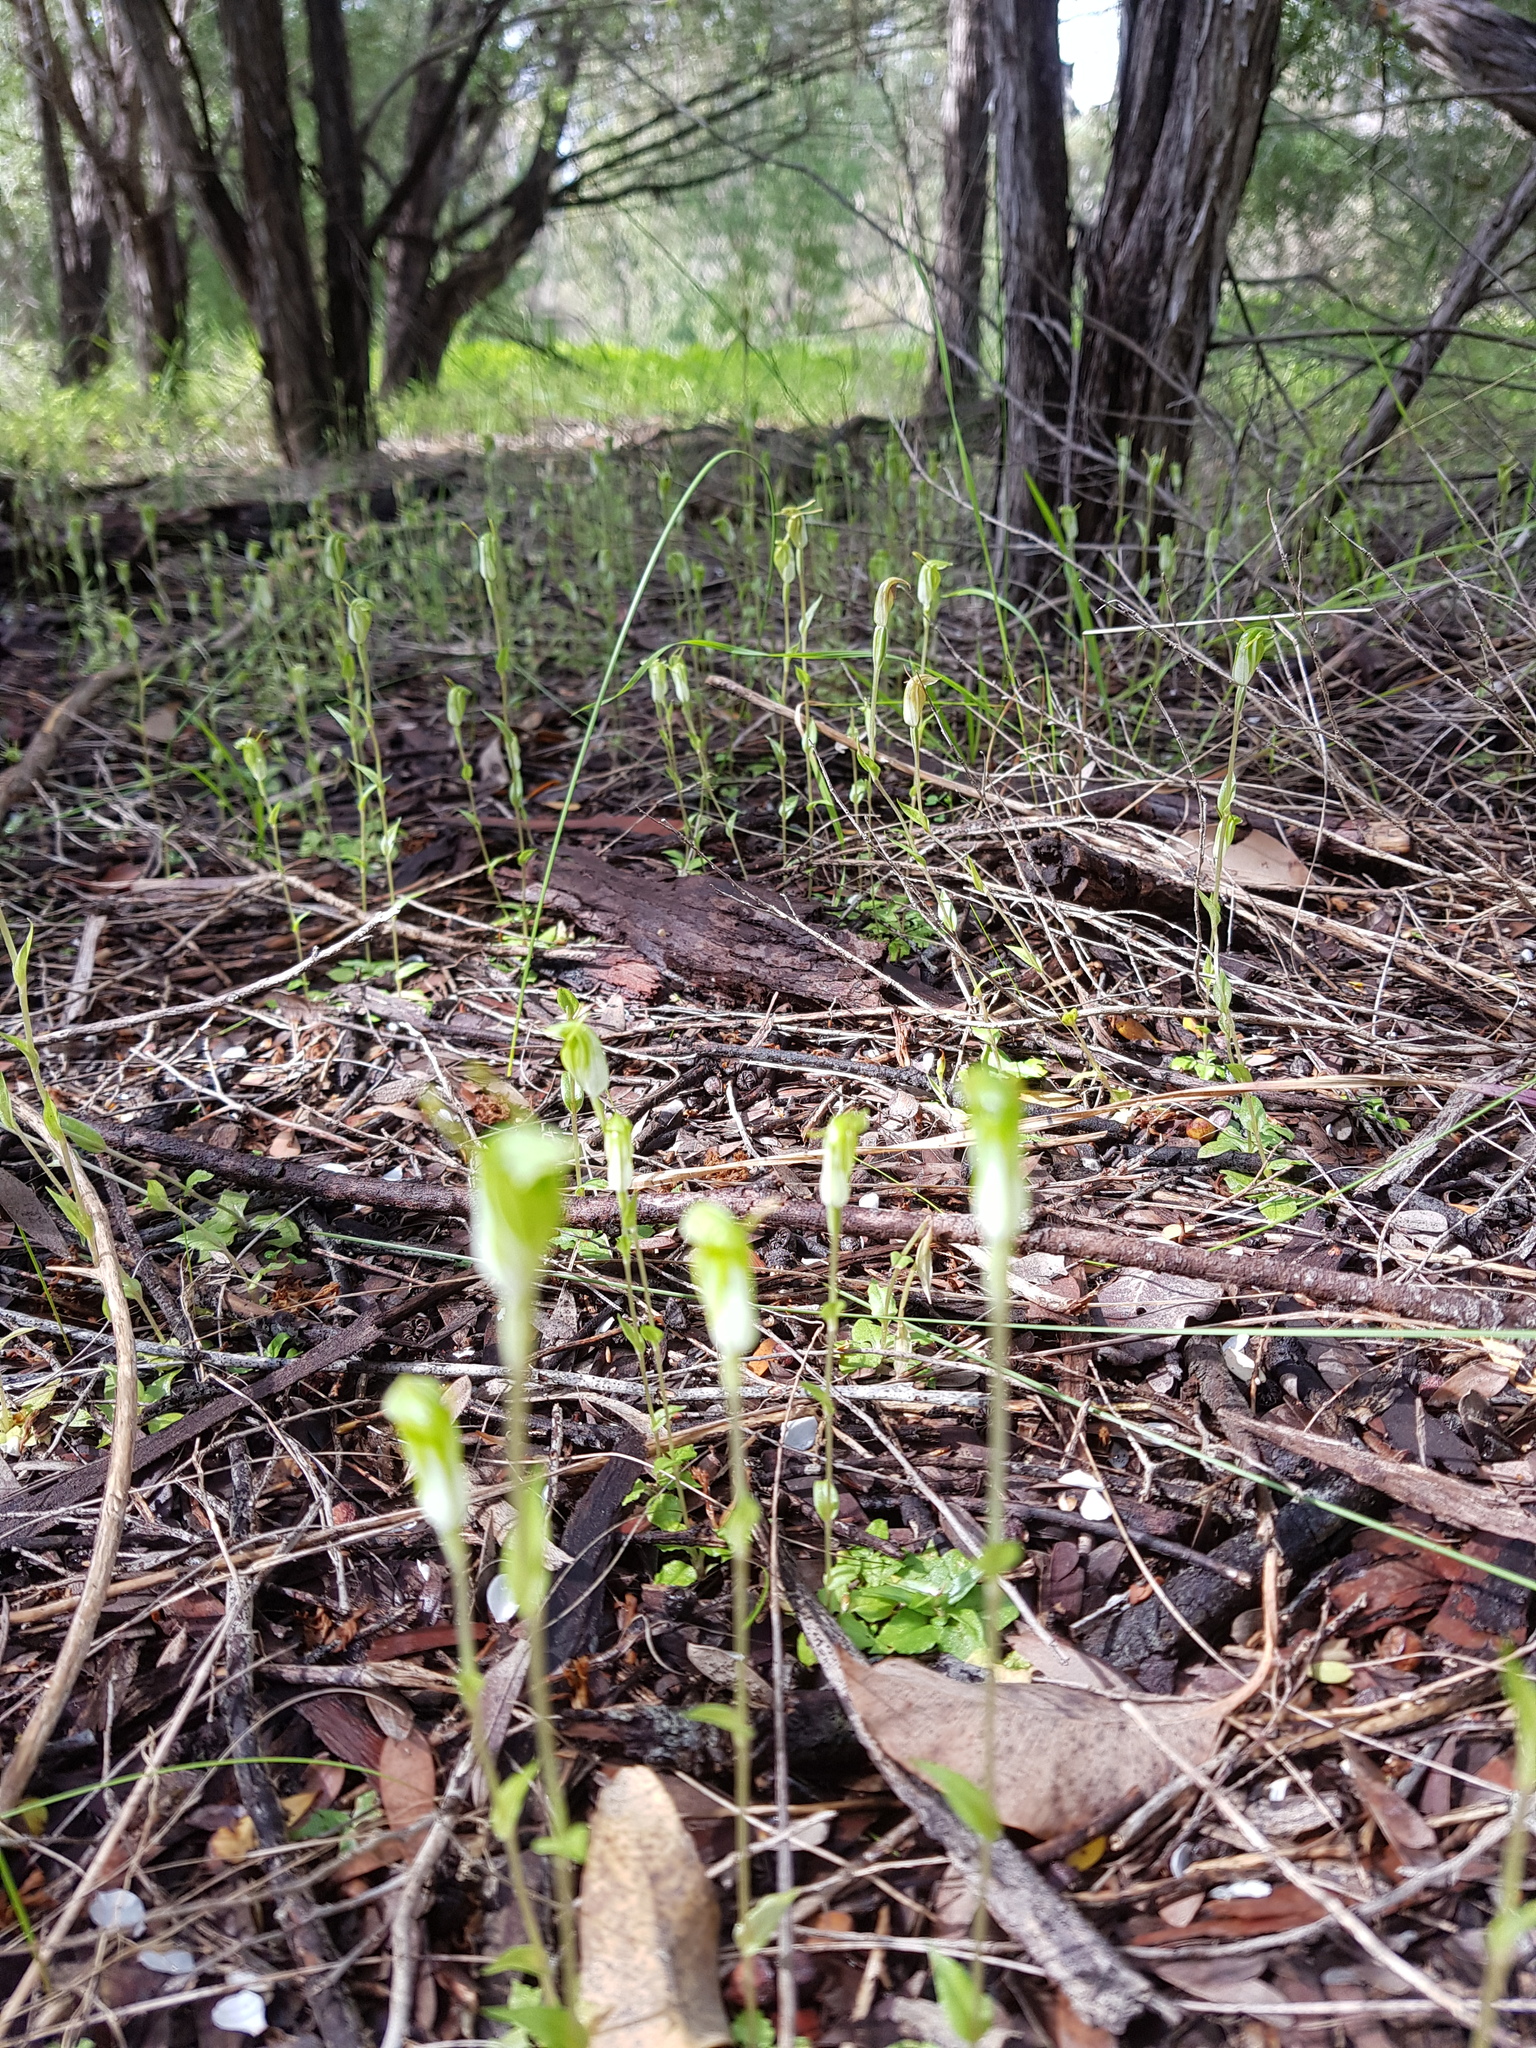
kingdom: Plantae
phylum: Tracheophyta
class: Liliopsida
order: Asparagales
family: Orchidaceae
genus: Pterostylis
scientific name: Pterostylis ectypha
